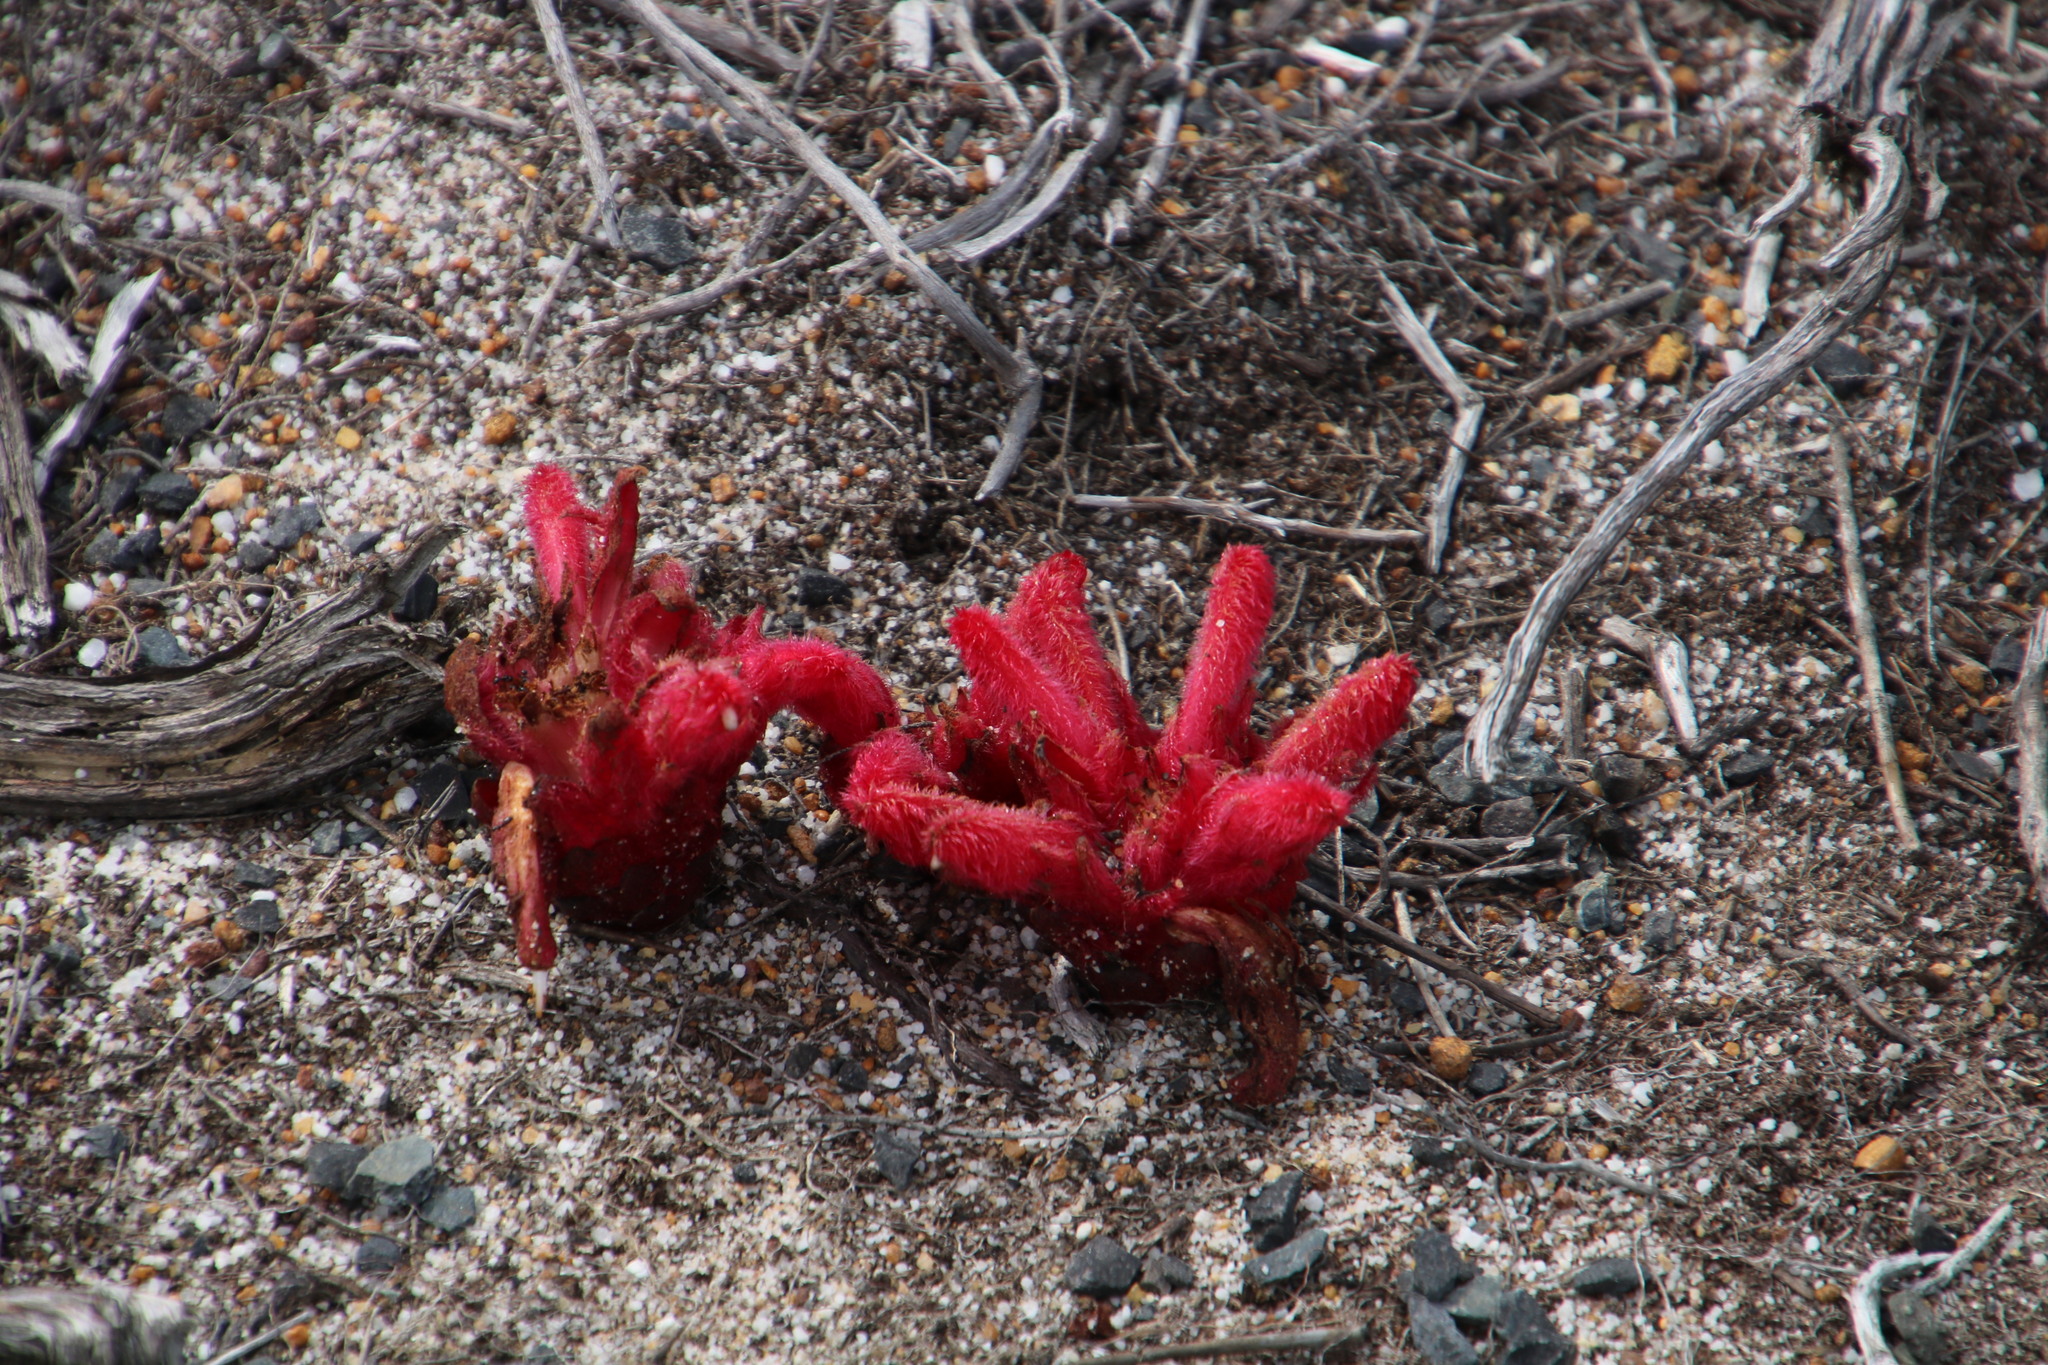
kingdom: Plantae
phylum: Tracheophyta
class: Magnoliopsida
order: Lamiales
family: Orobanchaceae
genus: Hyobanche
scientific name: Hyobanche sanguinea
